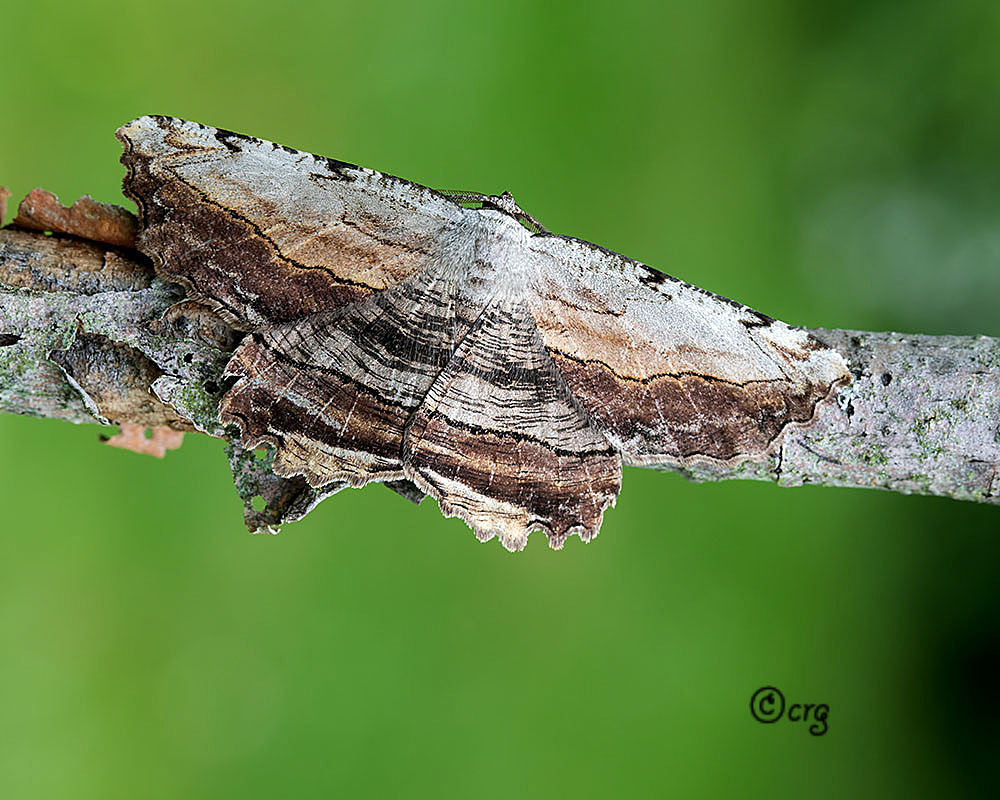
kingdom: Animalia
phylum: Arthropoda
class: Insecta
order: Lepidoptera
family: Geometridae
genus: Lytrosis
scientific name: Lytrosis unitaria
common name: Common lytrosis
